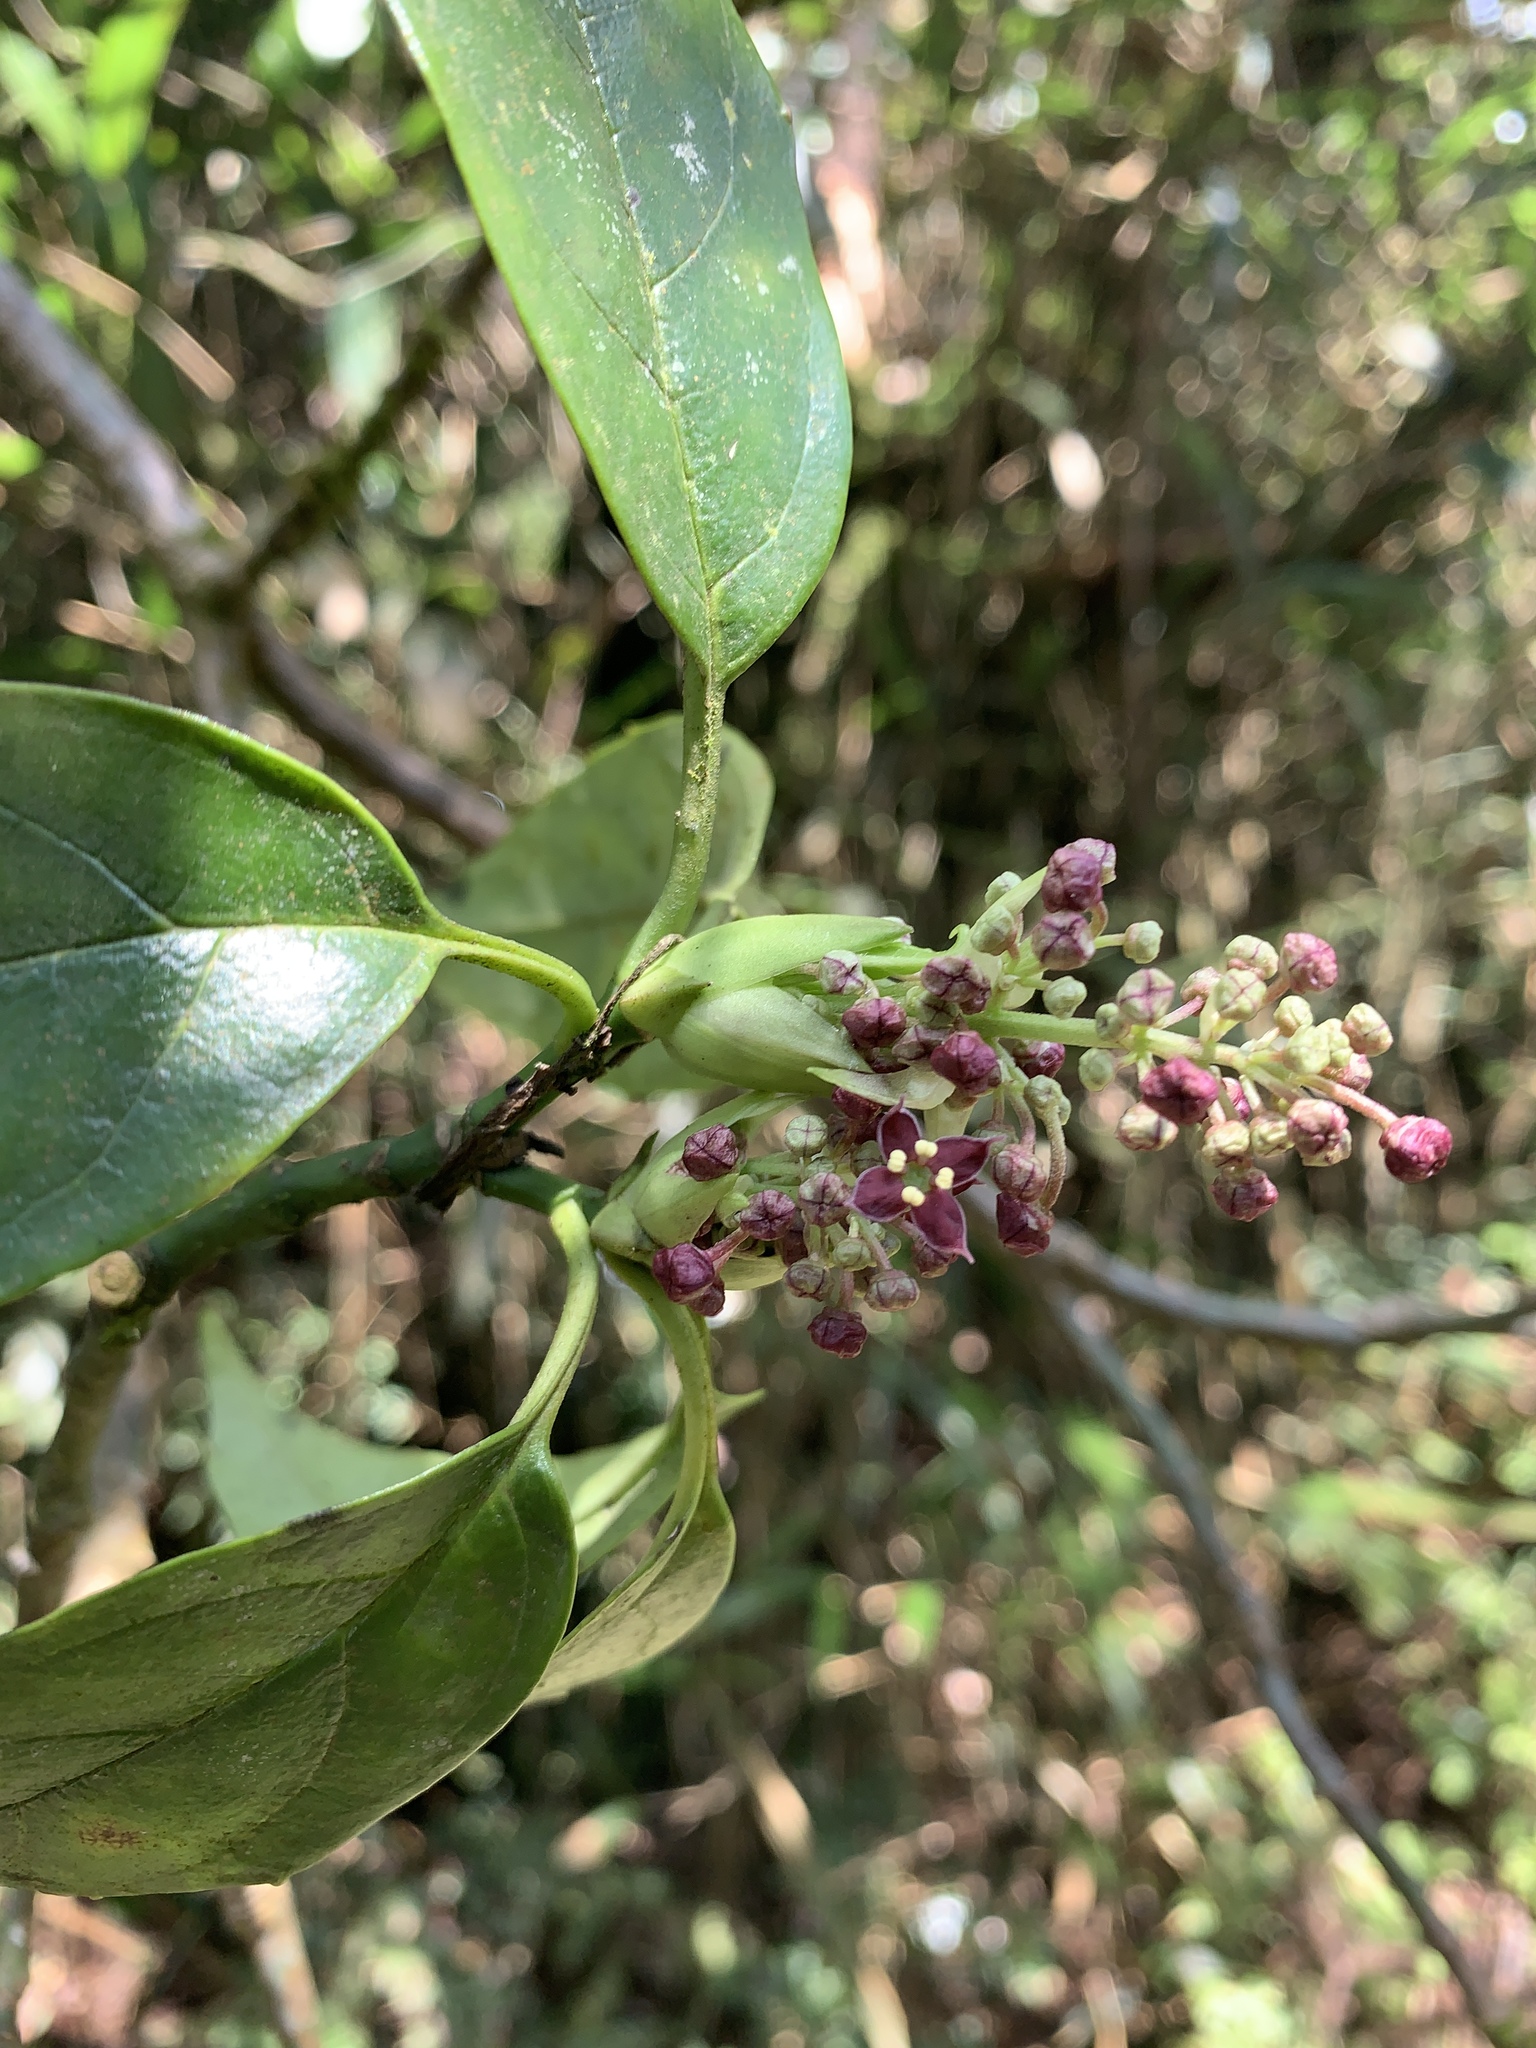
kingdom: Plantae
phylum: Tracheophyta
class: Magnoliopsida
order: Garryales
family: Garryaceae
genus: Aucuba
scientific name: Aucuba japonica
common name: Spotted-laurel
